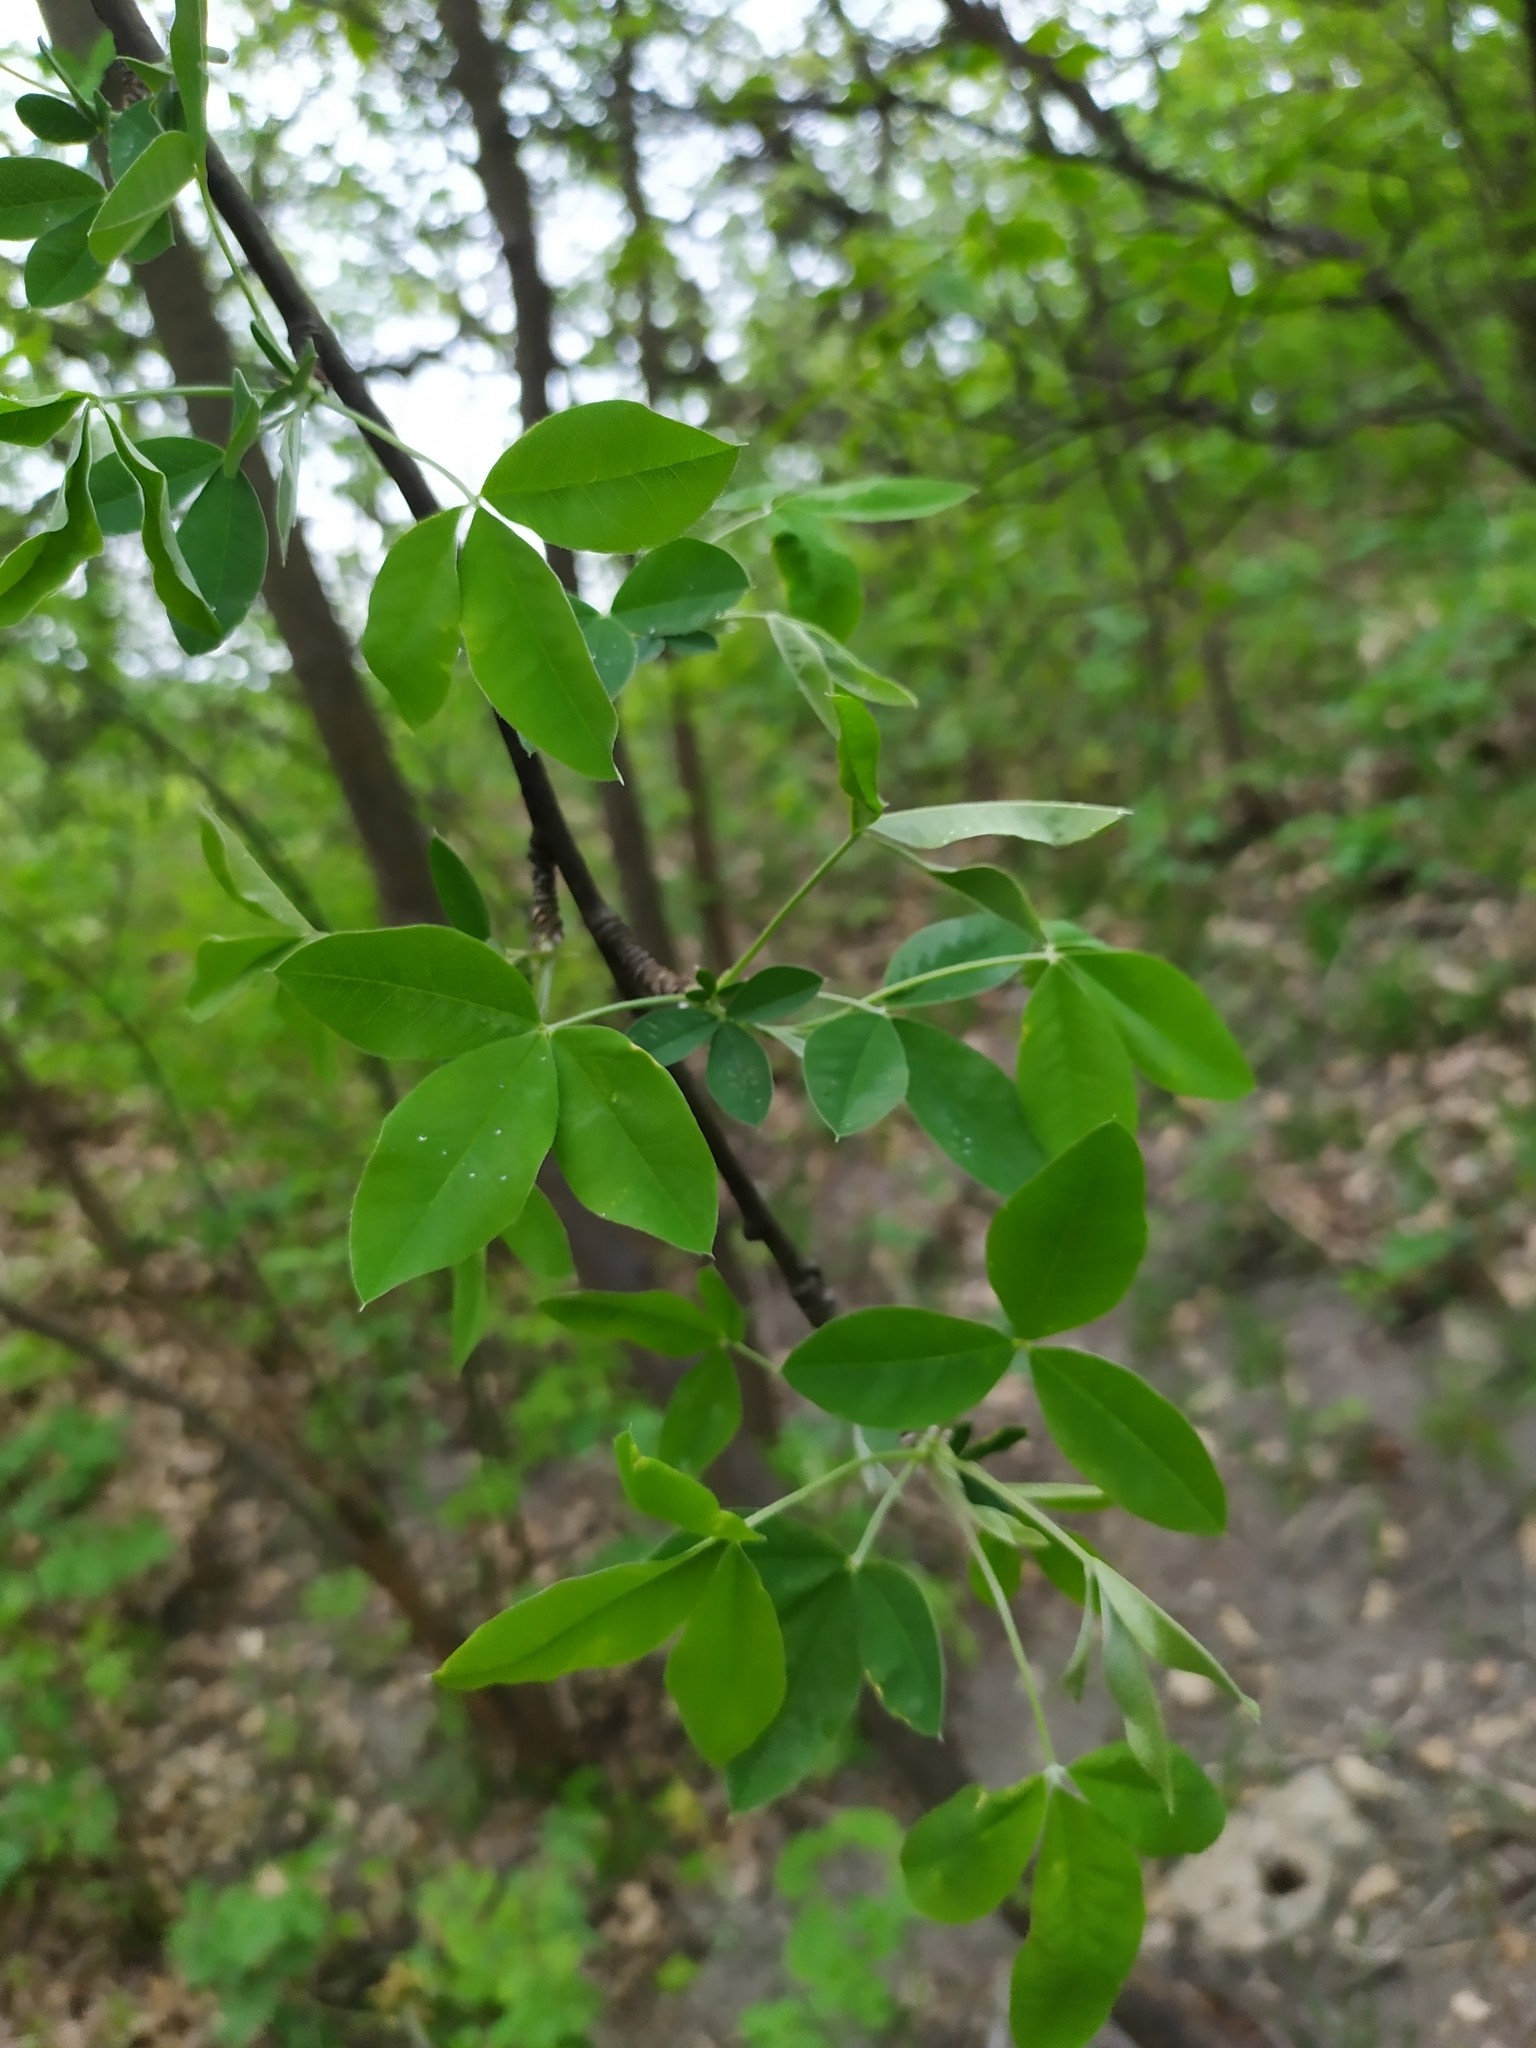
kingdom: Plantae
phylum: Tracheophyta
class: Magnoliopsida
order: Fabales
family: Fabaceae
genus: Laburnum
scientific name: Laburnum anagyroides
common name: Laburnum
